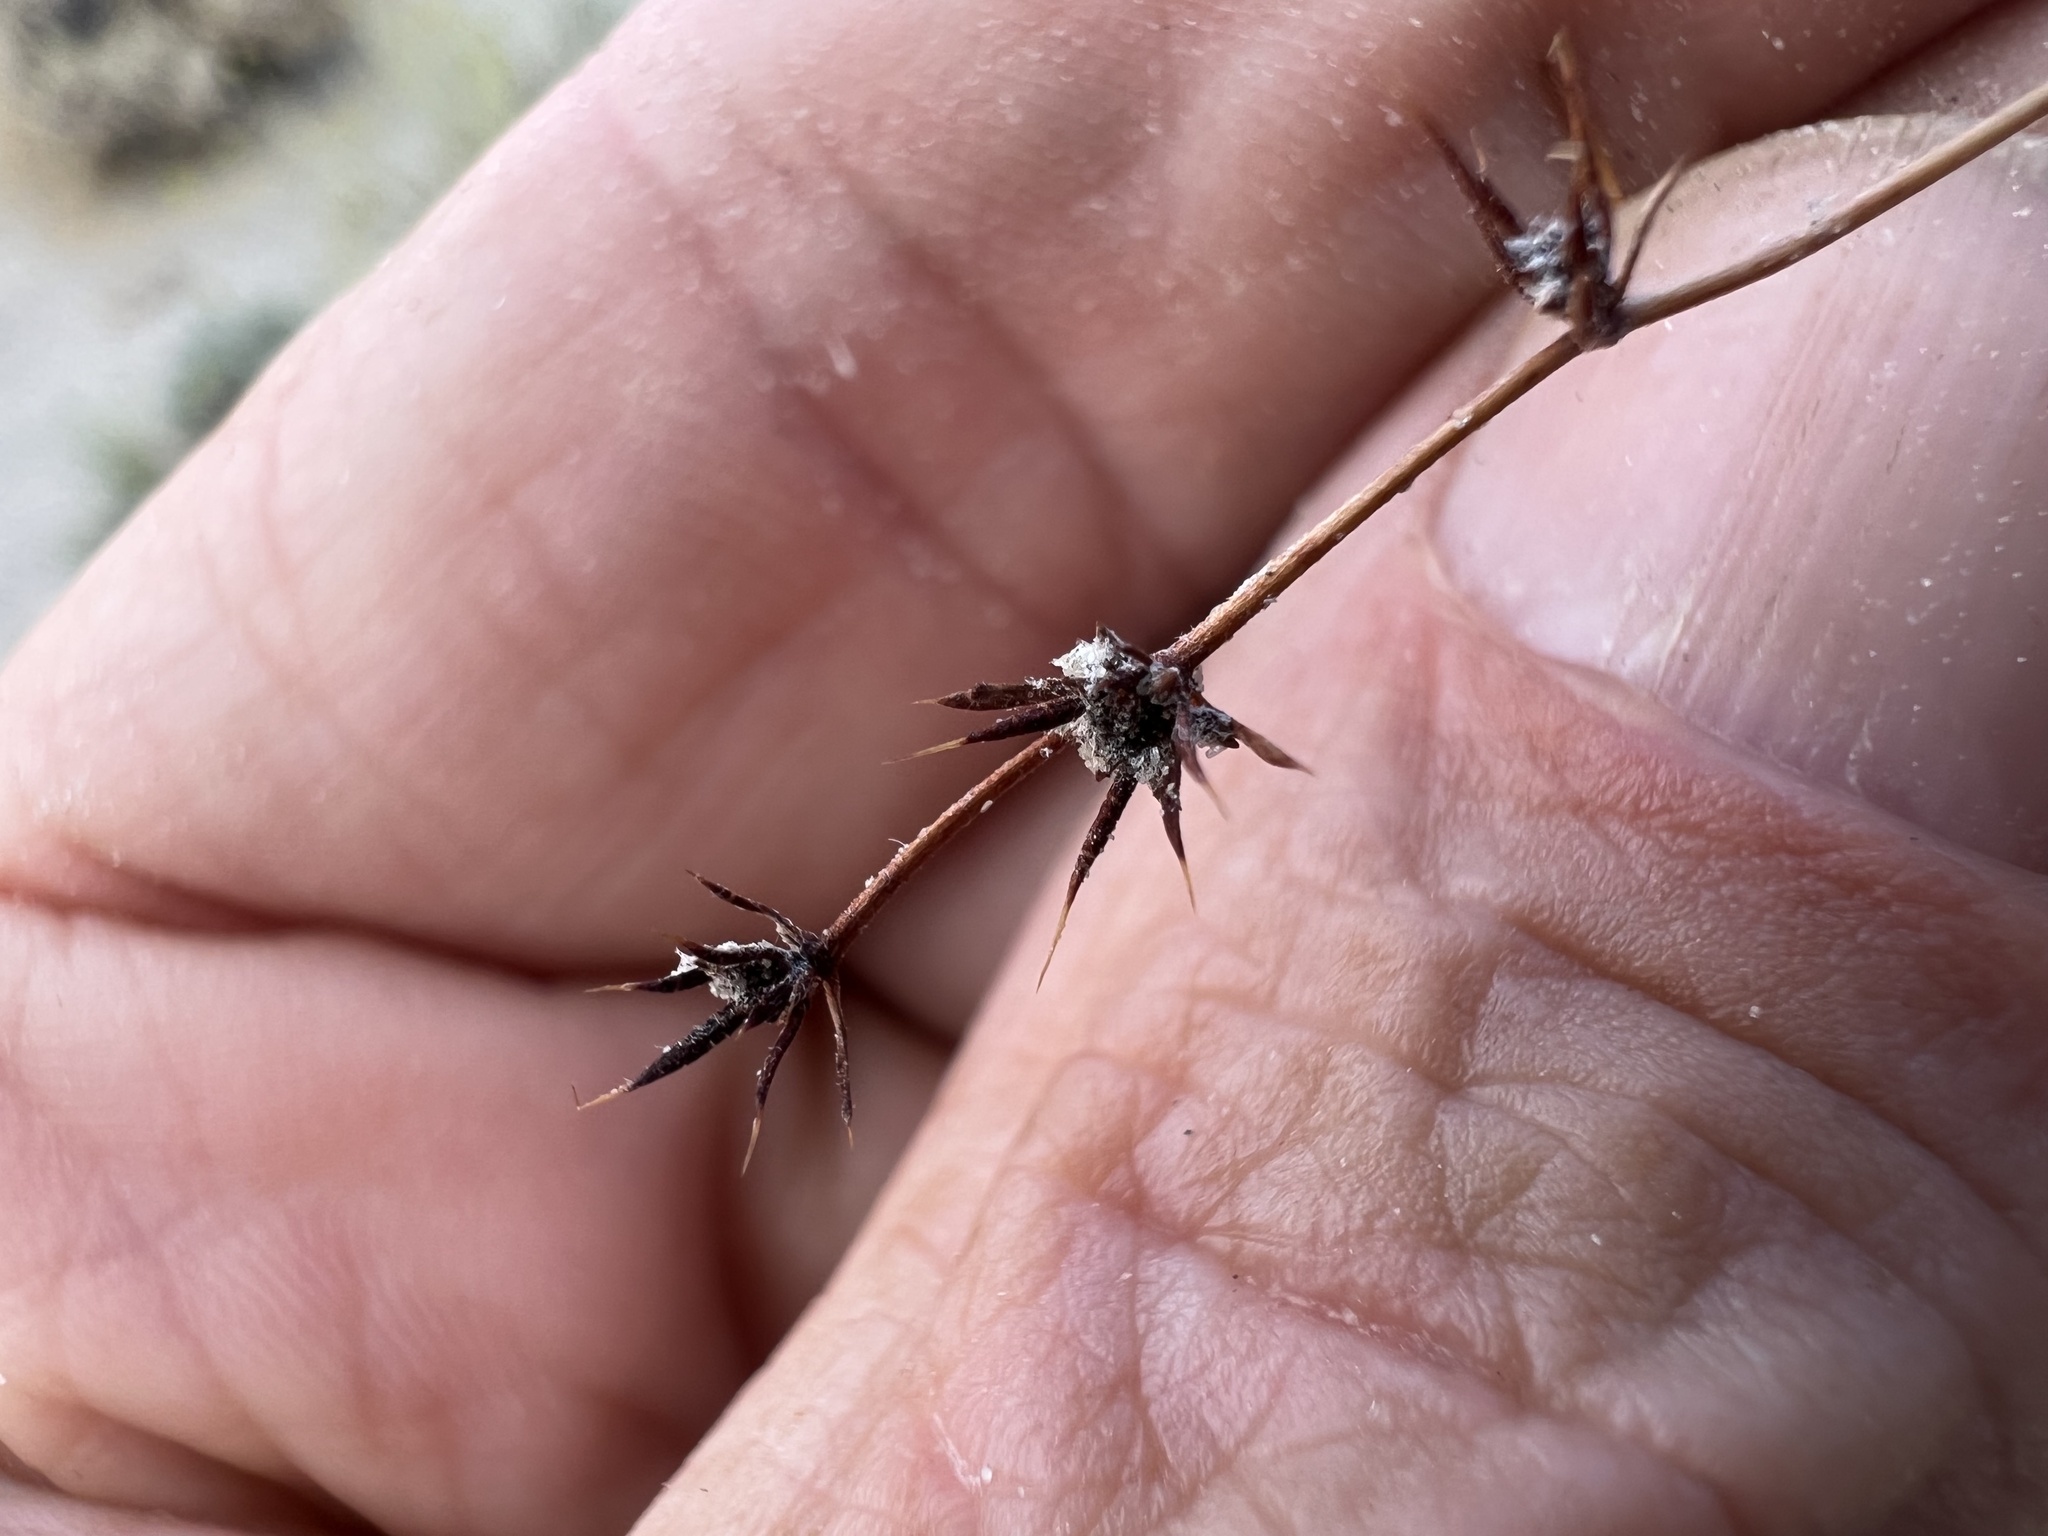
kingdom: Plantae
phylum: Tracheophyta
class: Magnoliopsida
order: Caryophyllales
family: Polygonaceae
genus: Goodmania
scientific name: Goodmania luteola
